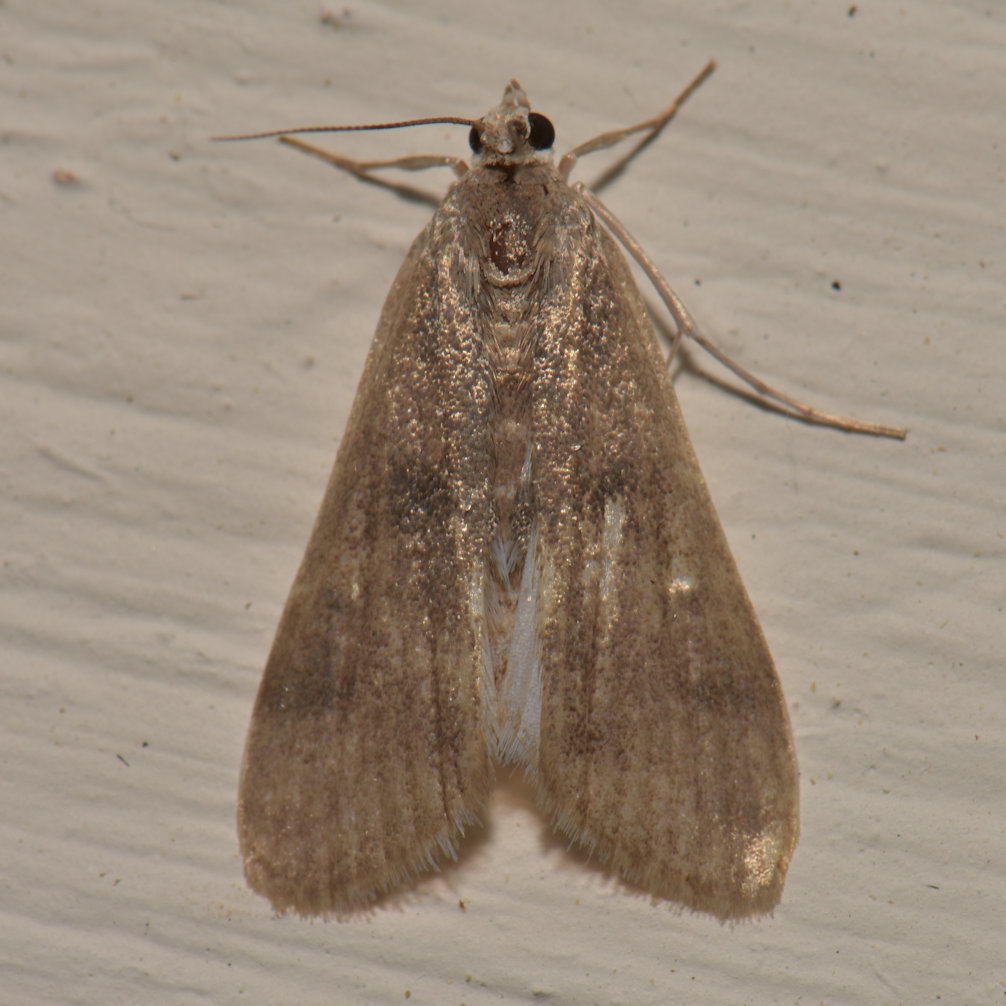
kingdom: Animalia
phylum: Arthropoda
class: Insecta
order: Lepidoptera
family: Crambidae
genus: Parapoynx
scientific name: Parapoynx maculalis
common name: Polymorphic pondweed moth
